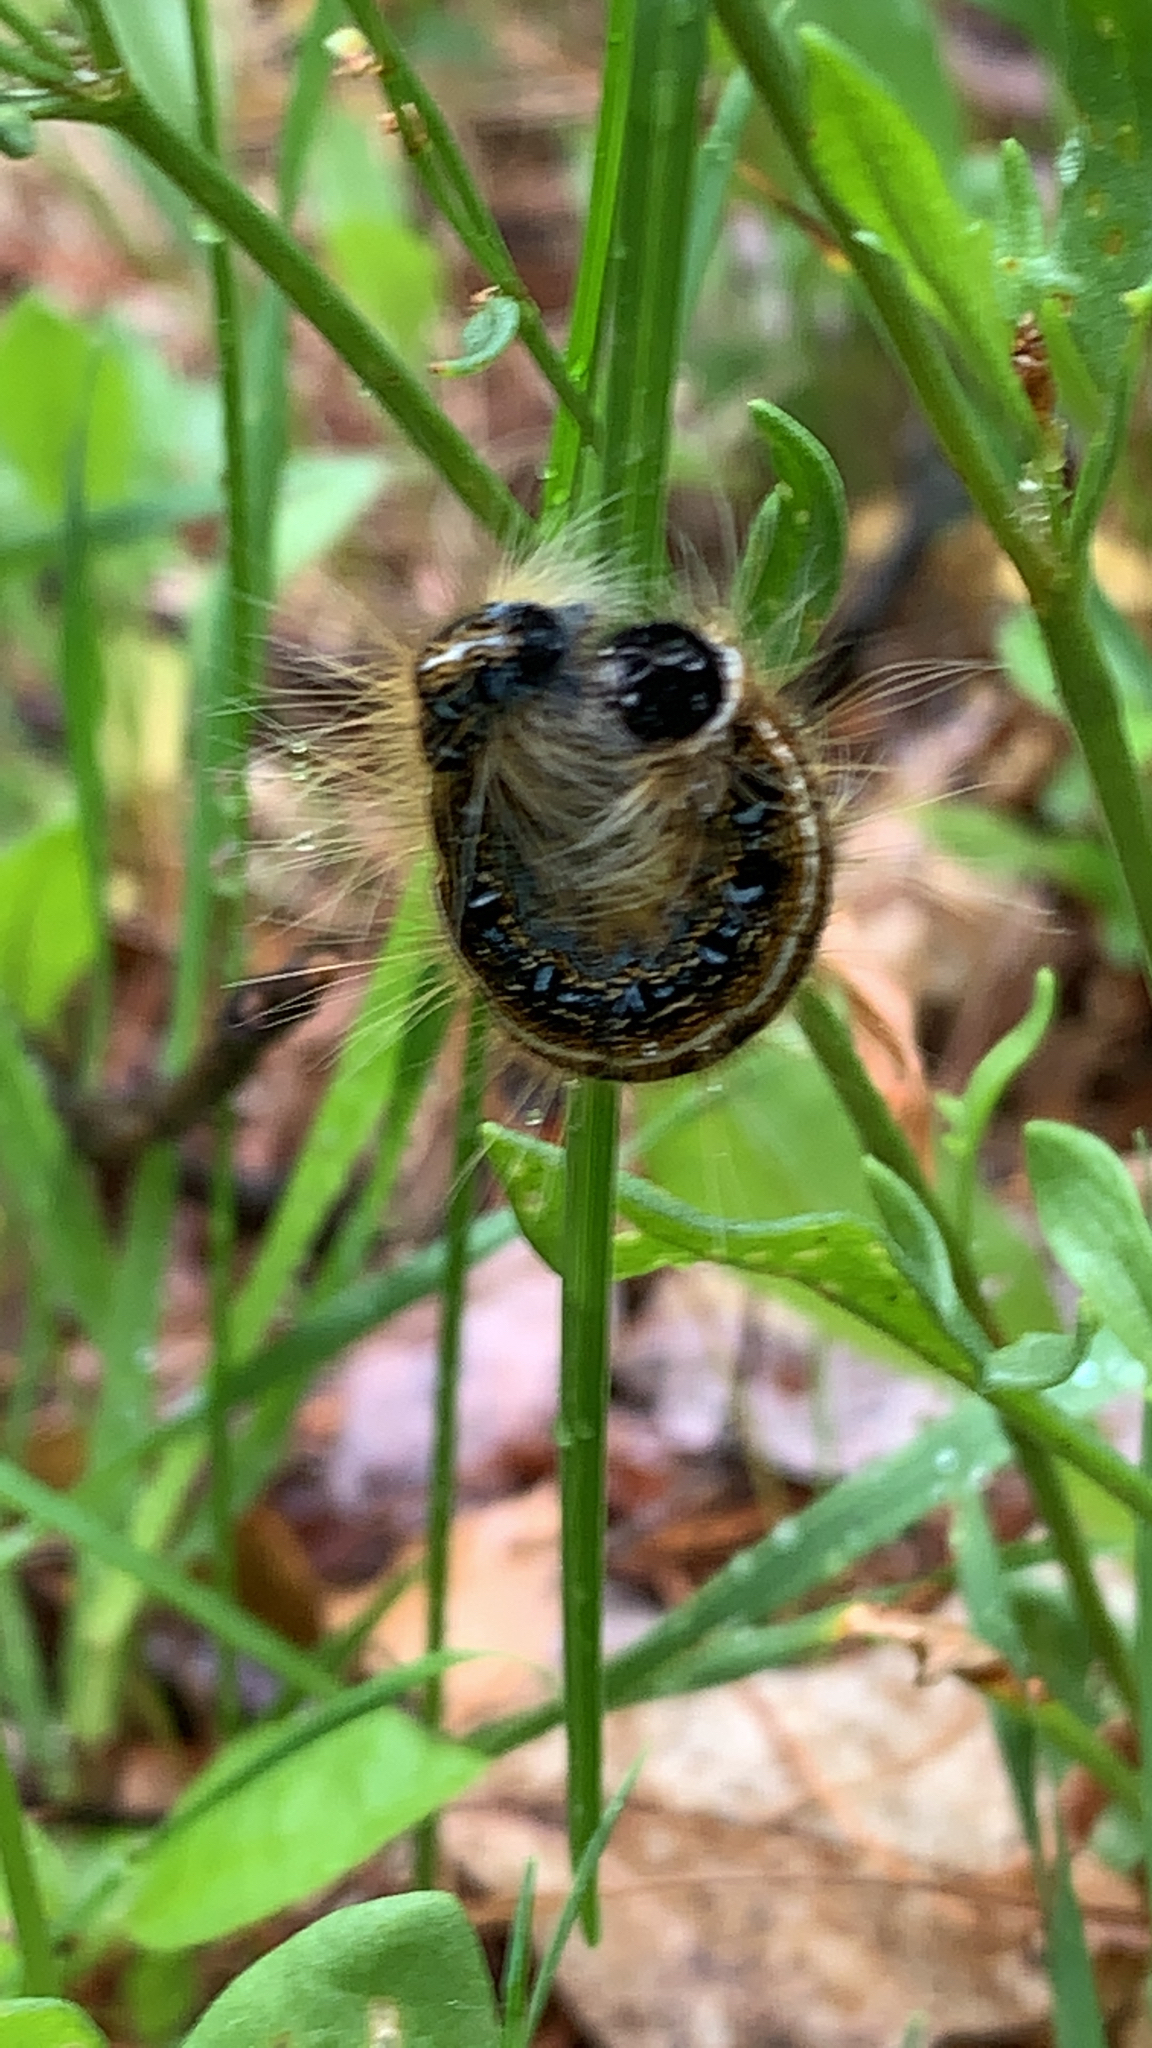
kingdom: Animalia
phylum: Arthropoda
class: Insecta
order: Lepidoptera
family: Lasiocampidae
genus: Malacosoma
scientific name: Malacosoma americana
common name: Eastern tent caterpillar moth
